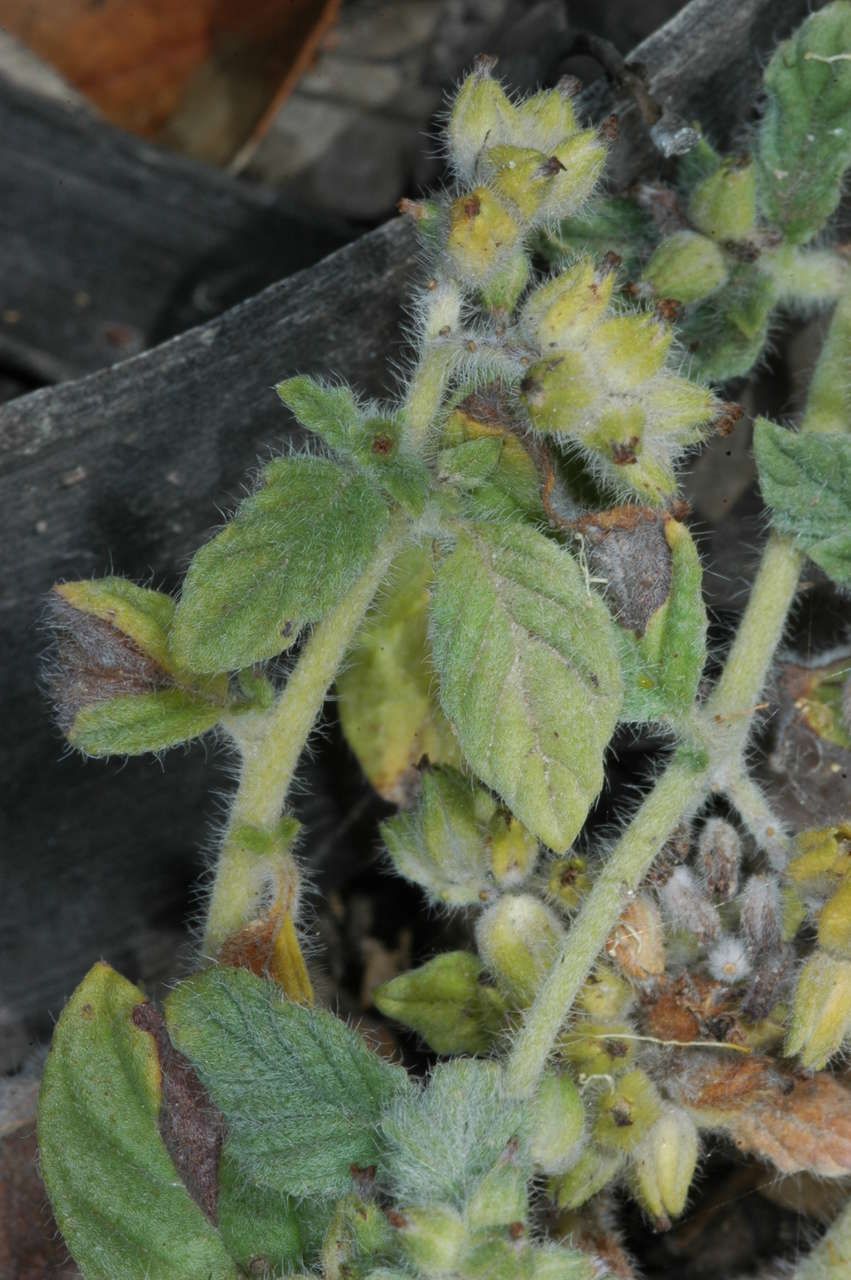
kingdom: Plantae
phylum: Tracheophyta
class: Magnoliopsida
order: Boraginales
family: Heliotropiaceae
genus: Heliotropium
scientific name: Heliotropium supinum
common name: Dwarf heliotrope
